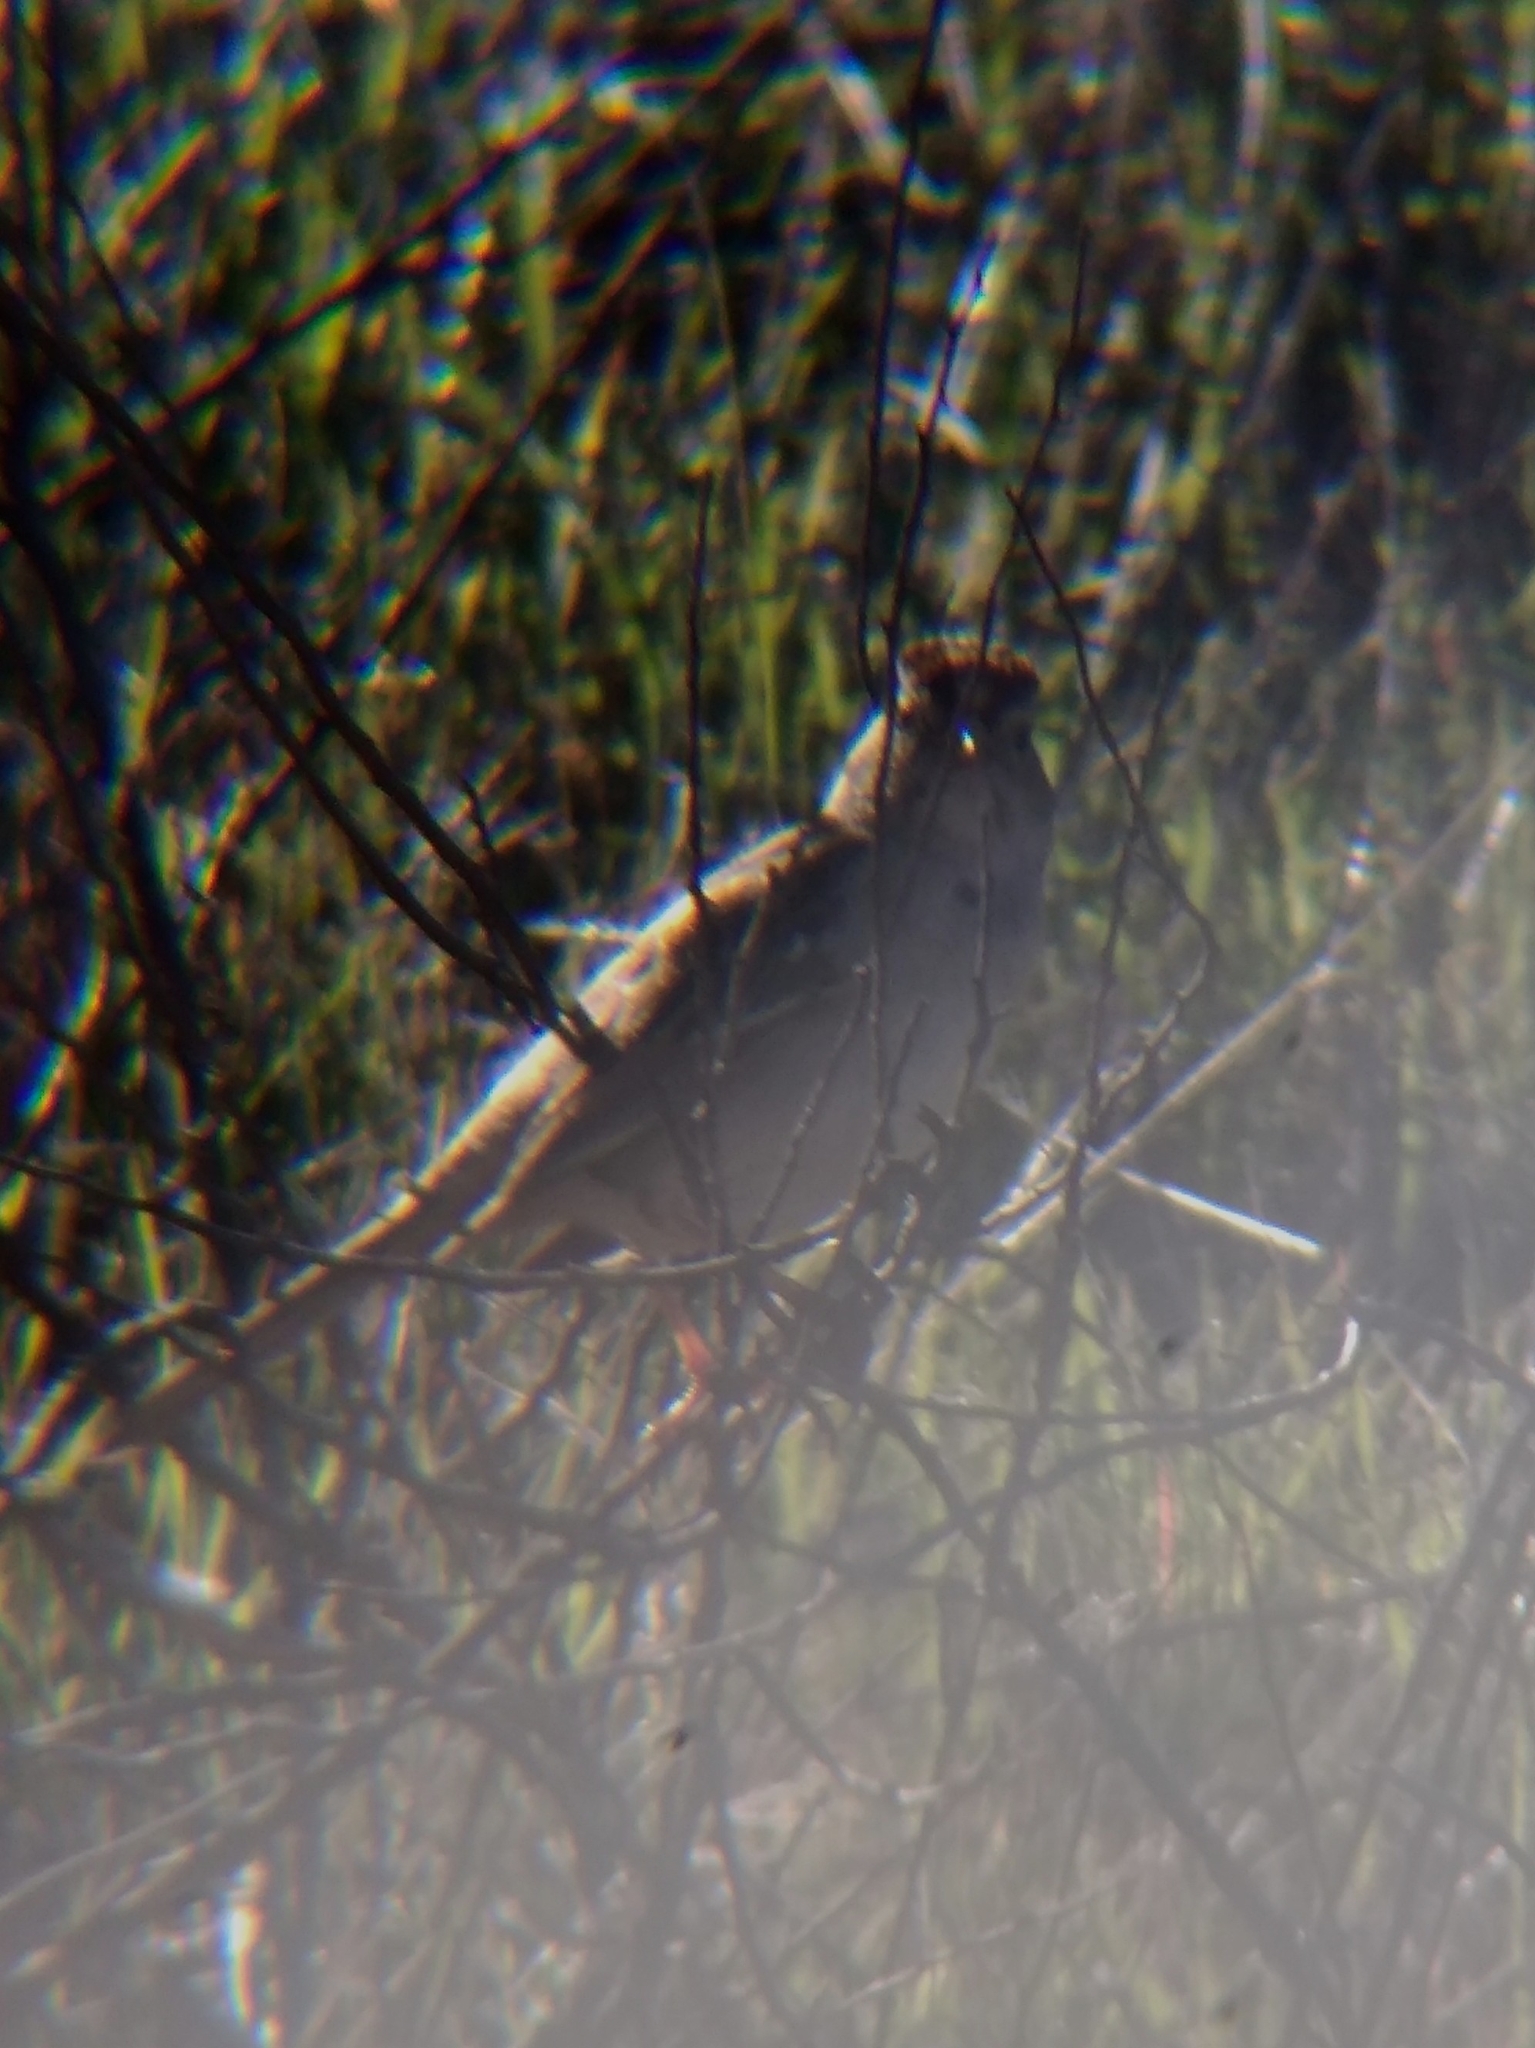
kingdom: Animalia
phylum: Chordata
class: Aves
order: Passeriformes
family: Passerellidae
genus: Zonotrichia
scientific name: Zonotrichia leucophrys
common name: White-crowned sparrow
